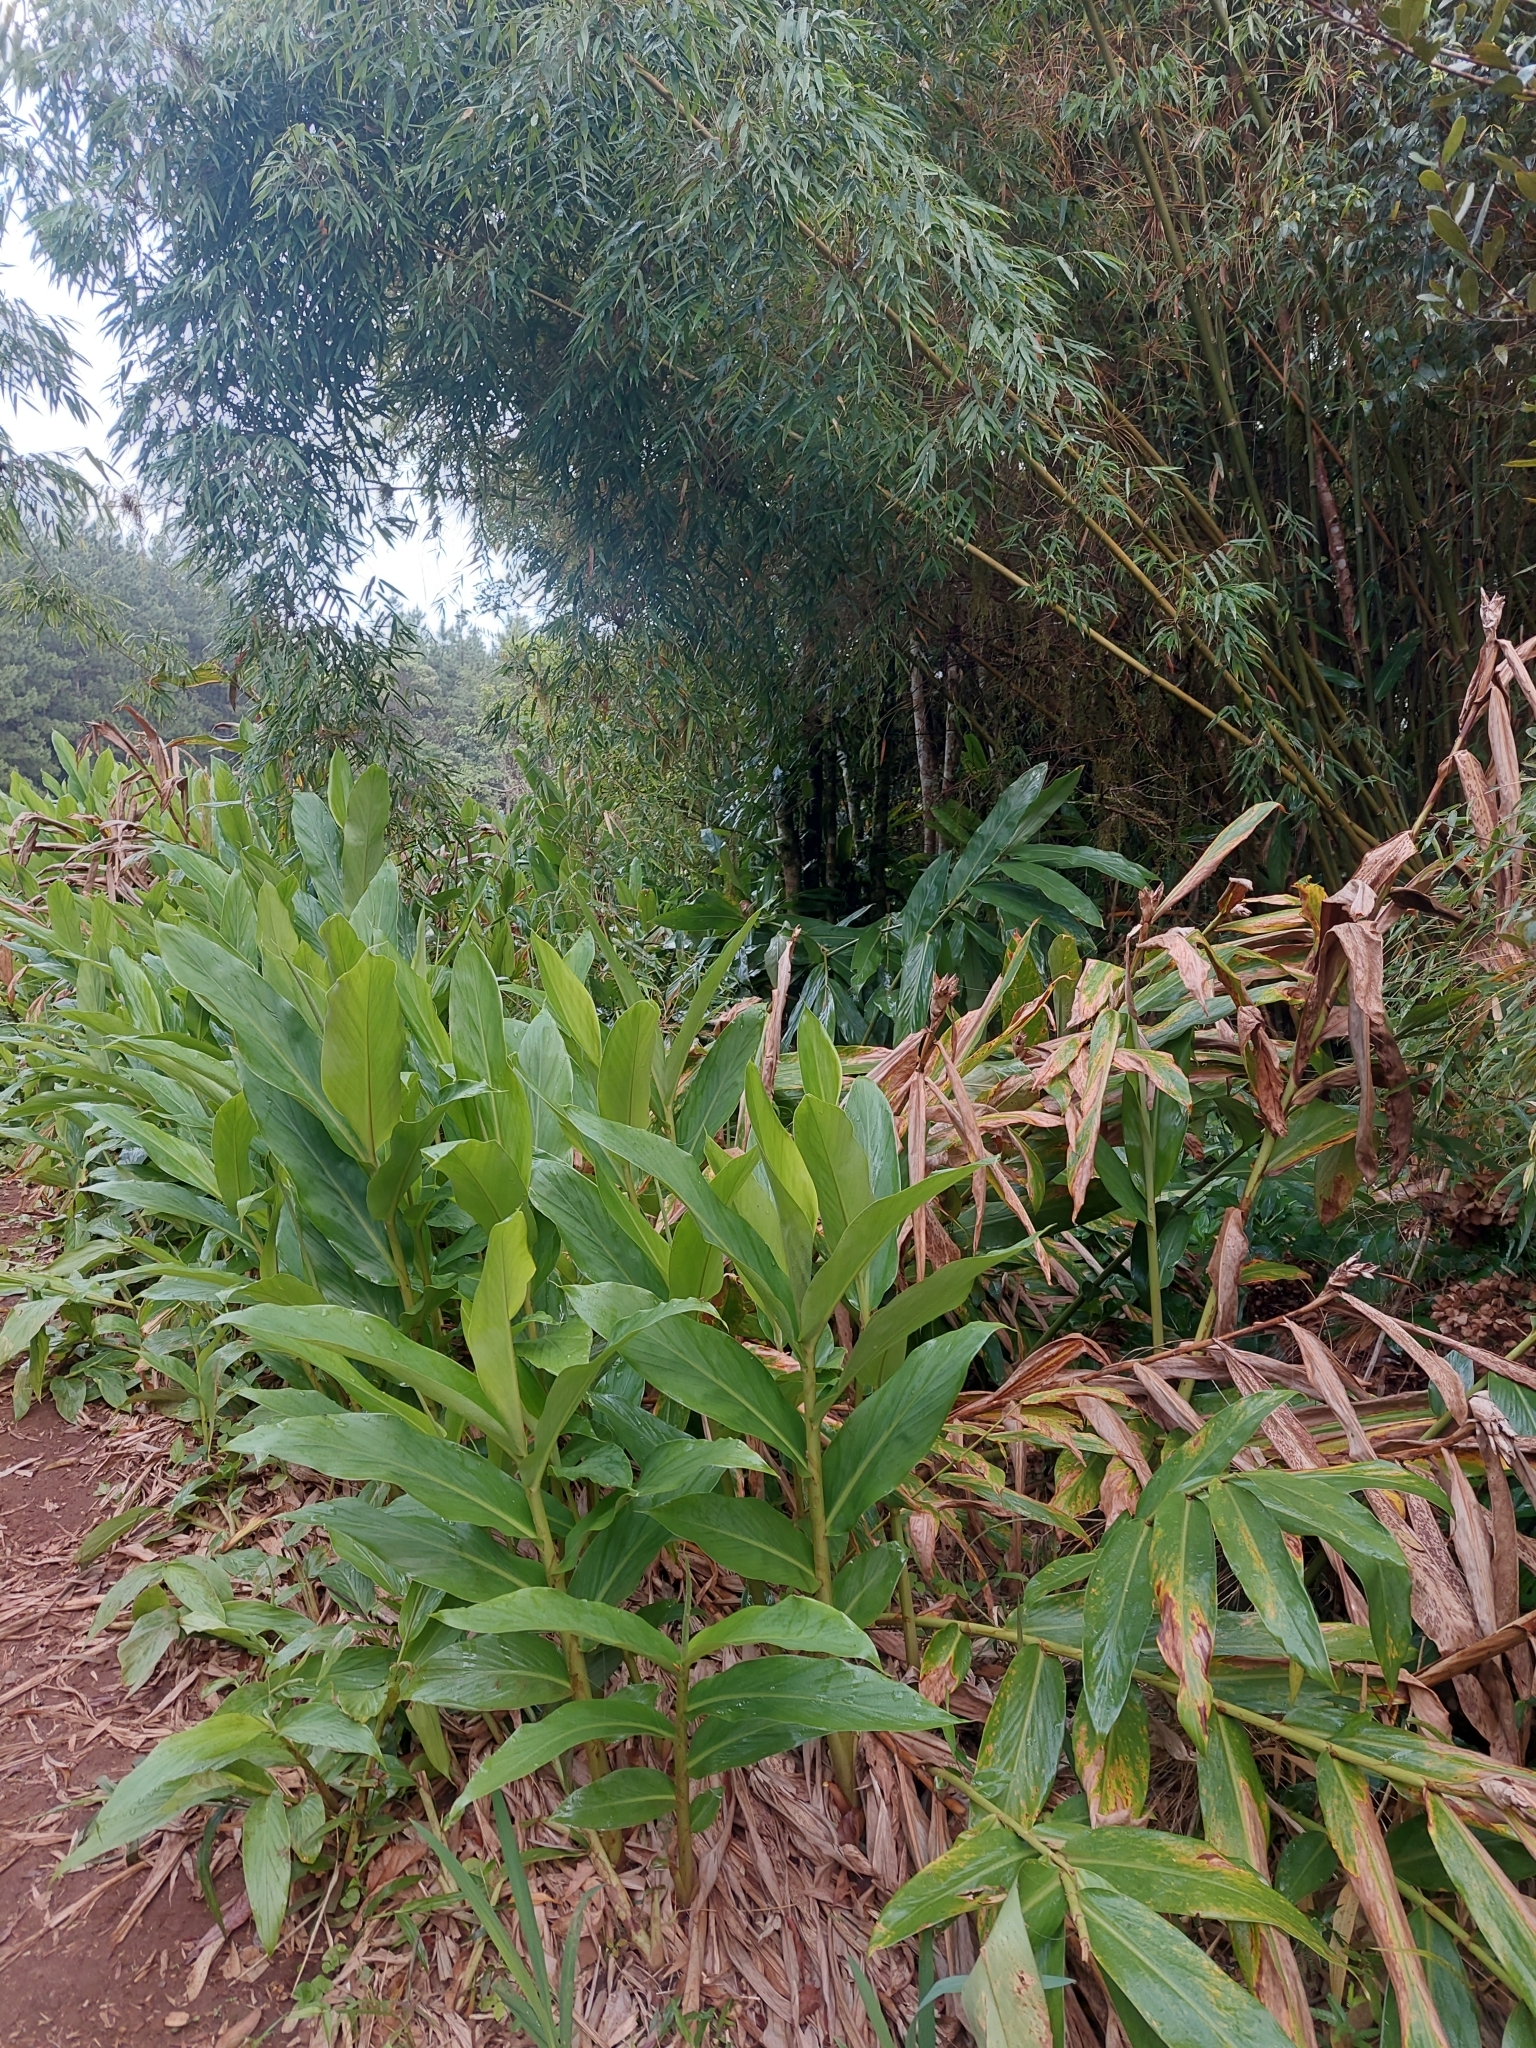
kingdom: Plantae
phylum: Tracheophyta
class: Liliopsida
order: Zingiberales
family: Zingiberaceae
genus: Hedychium
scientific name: Hedychium coronarium
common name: White garland-lily
